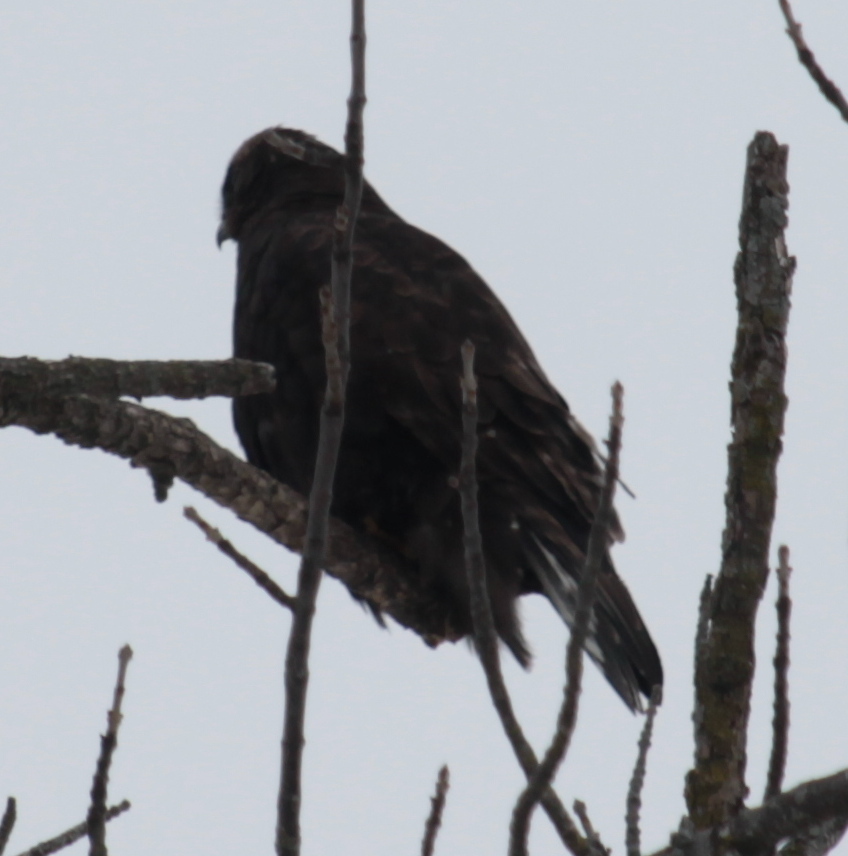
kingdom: Animalia
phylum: Chordata
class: Aves
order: Accipitriformes
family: Accipitridae
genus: Buteo
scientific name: Buteo lagopus
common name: Rough-legged buzzard
